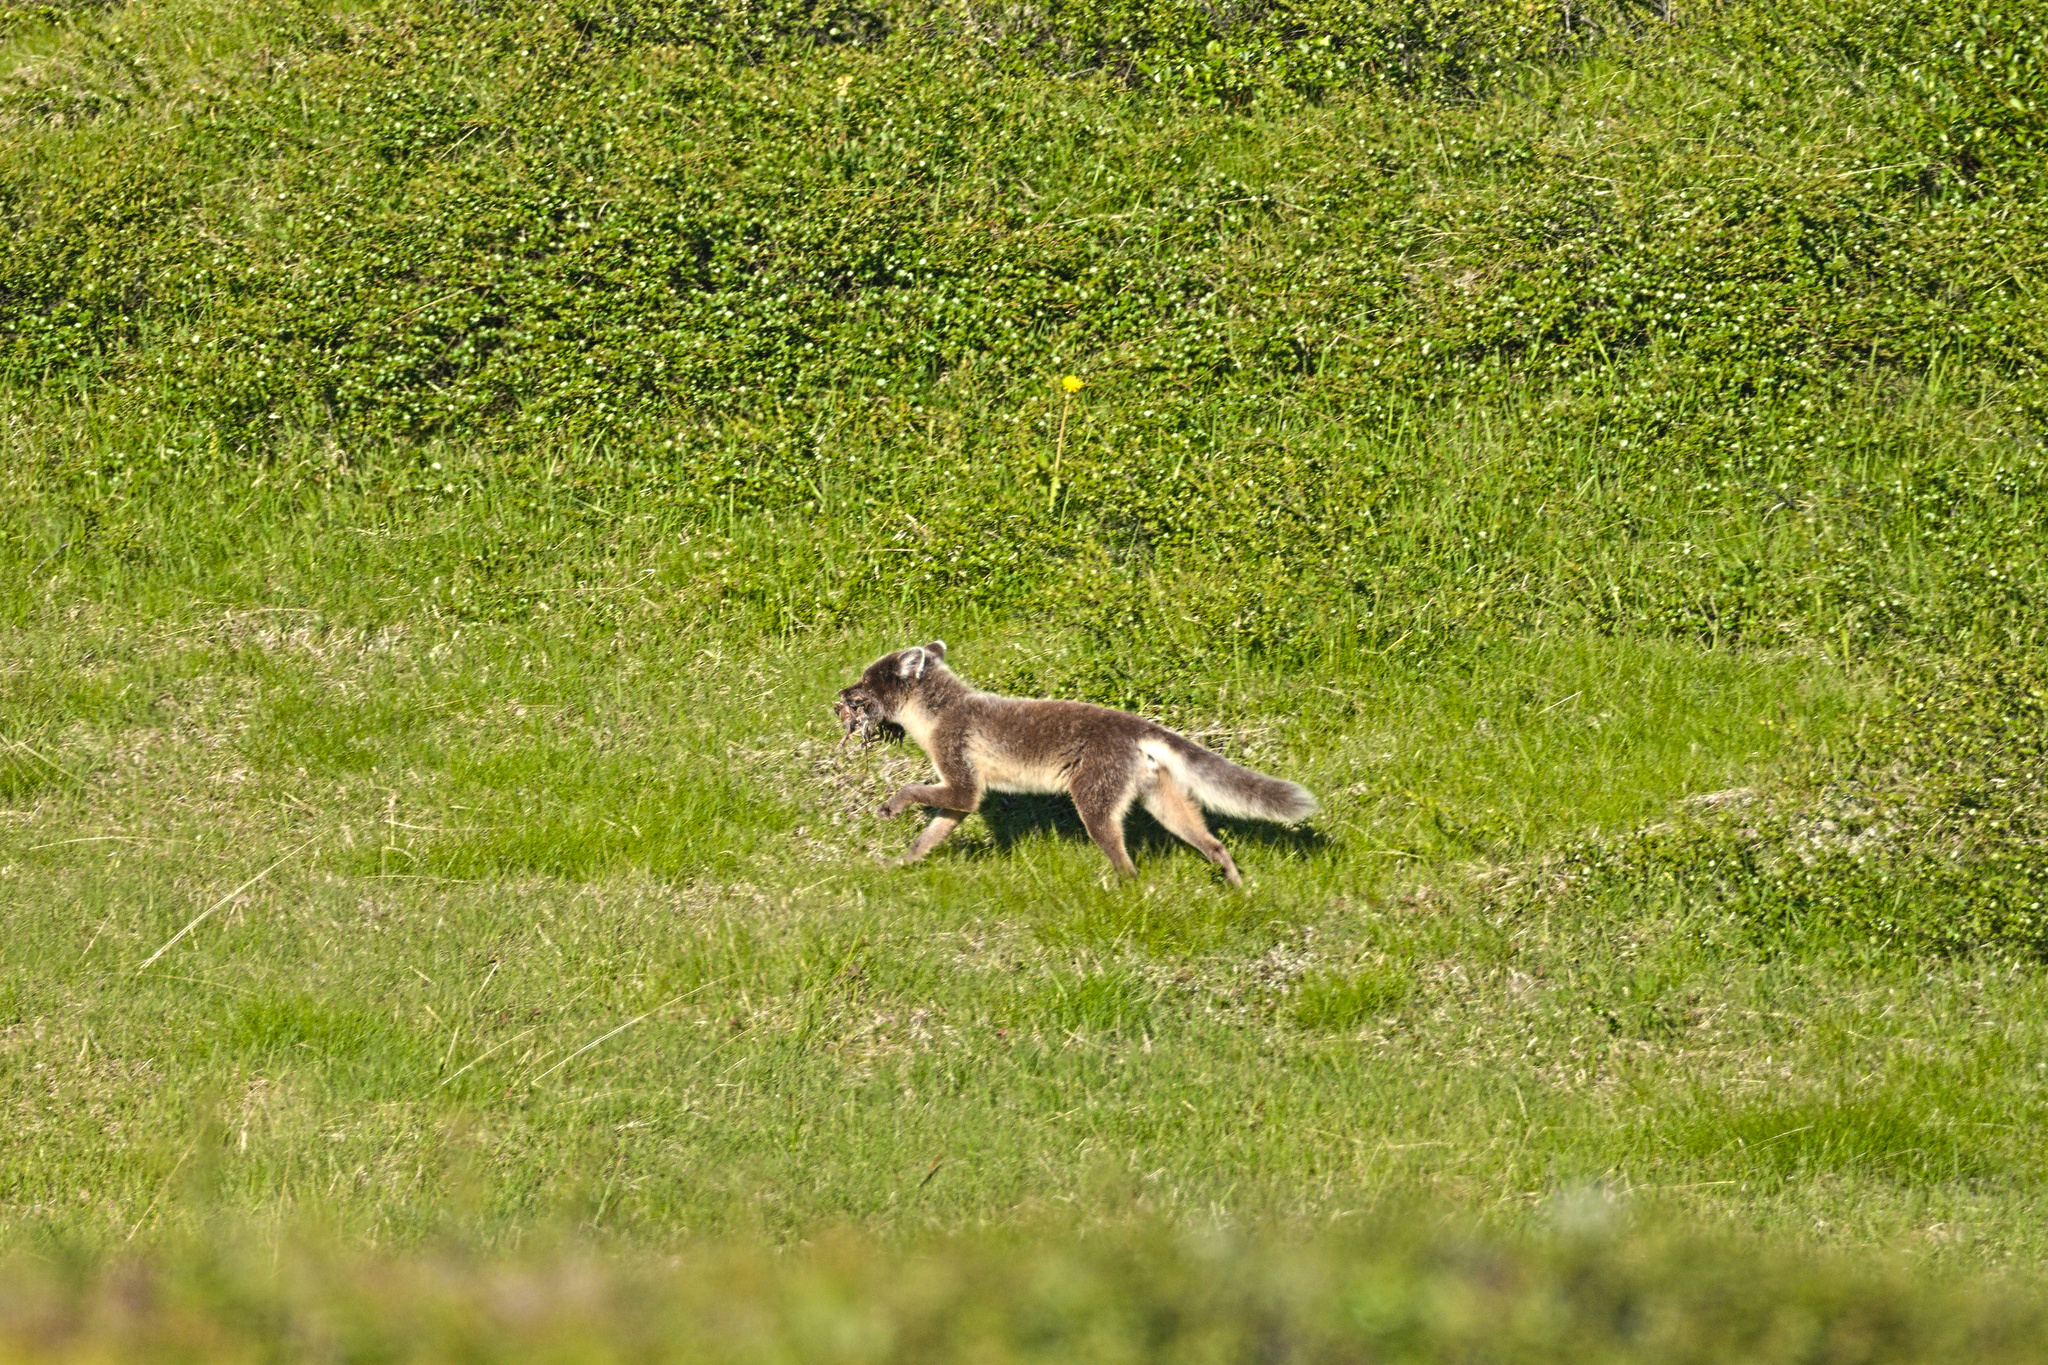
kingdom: Animalia
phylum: Chordata
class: Mammalia
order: Carnivora
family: Canidae
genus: Vulpes
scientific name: Vulpes lagopus
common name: Arctic fox
